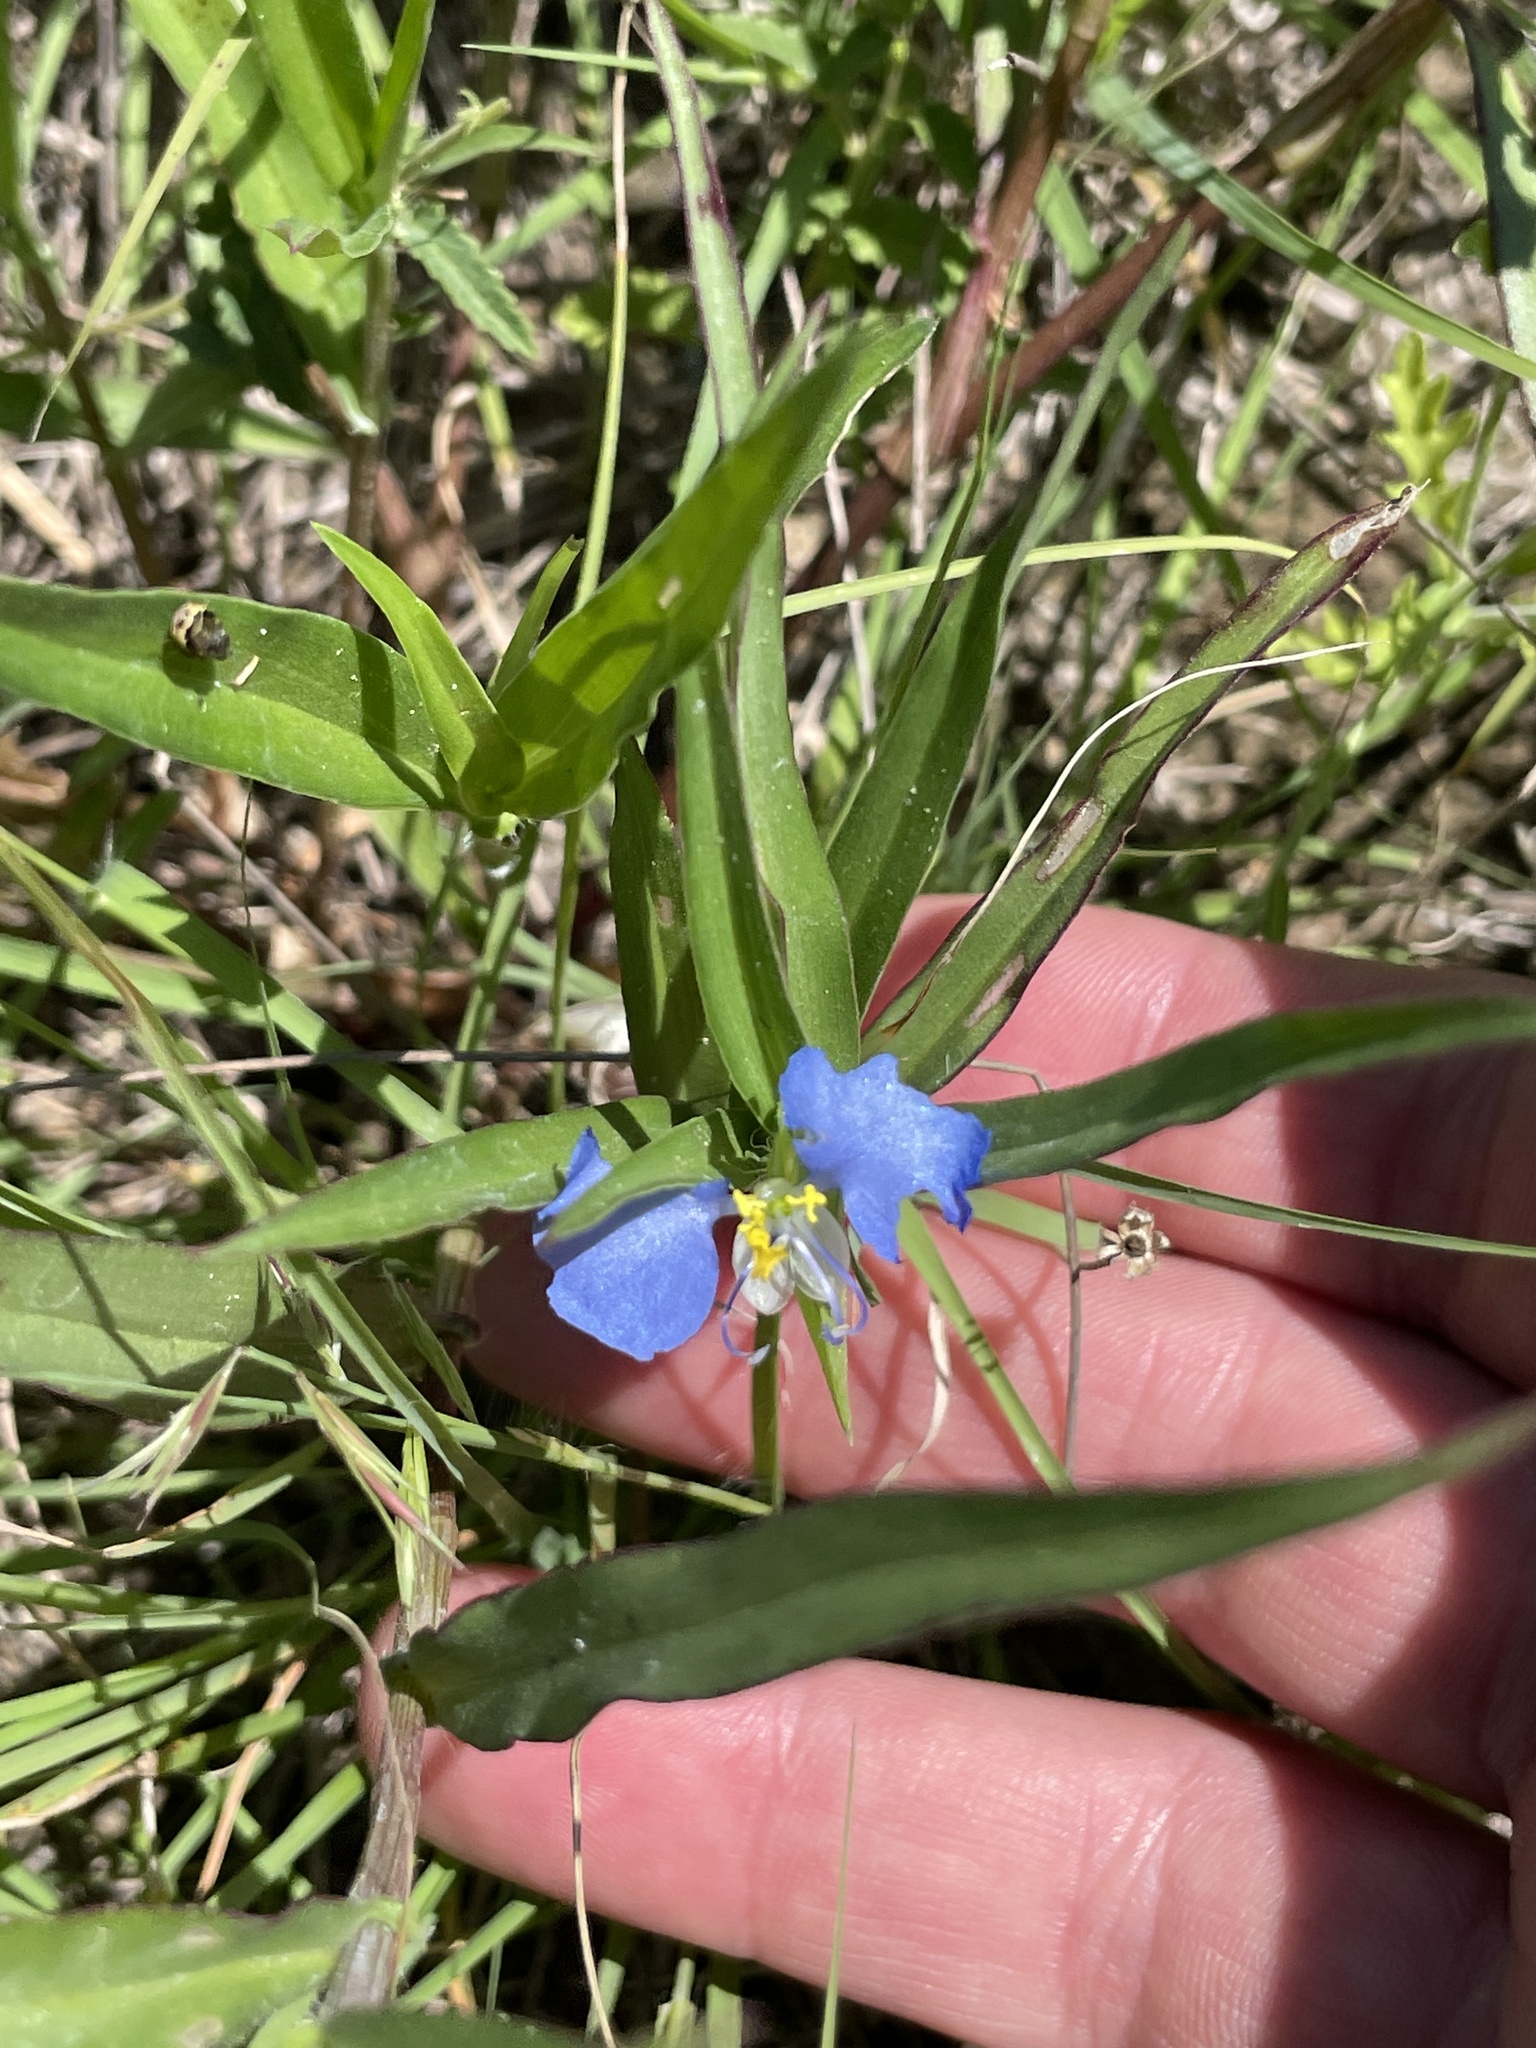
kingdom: Plantae
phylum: Tracheophyta
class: Liliopsida
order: Commelinales
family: Commelinaceae
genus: Commelina
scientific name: Commelina erecta
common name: Blousel blommetjie
